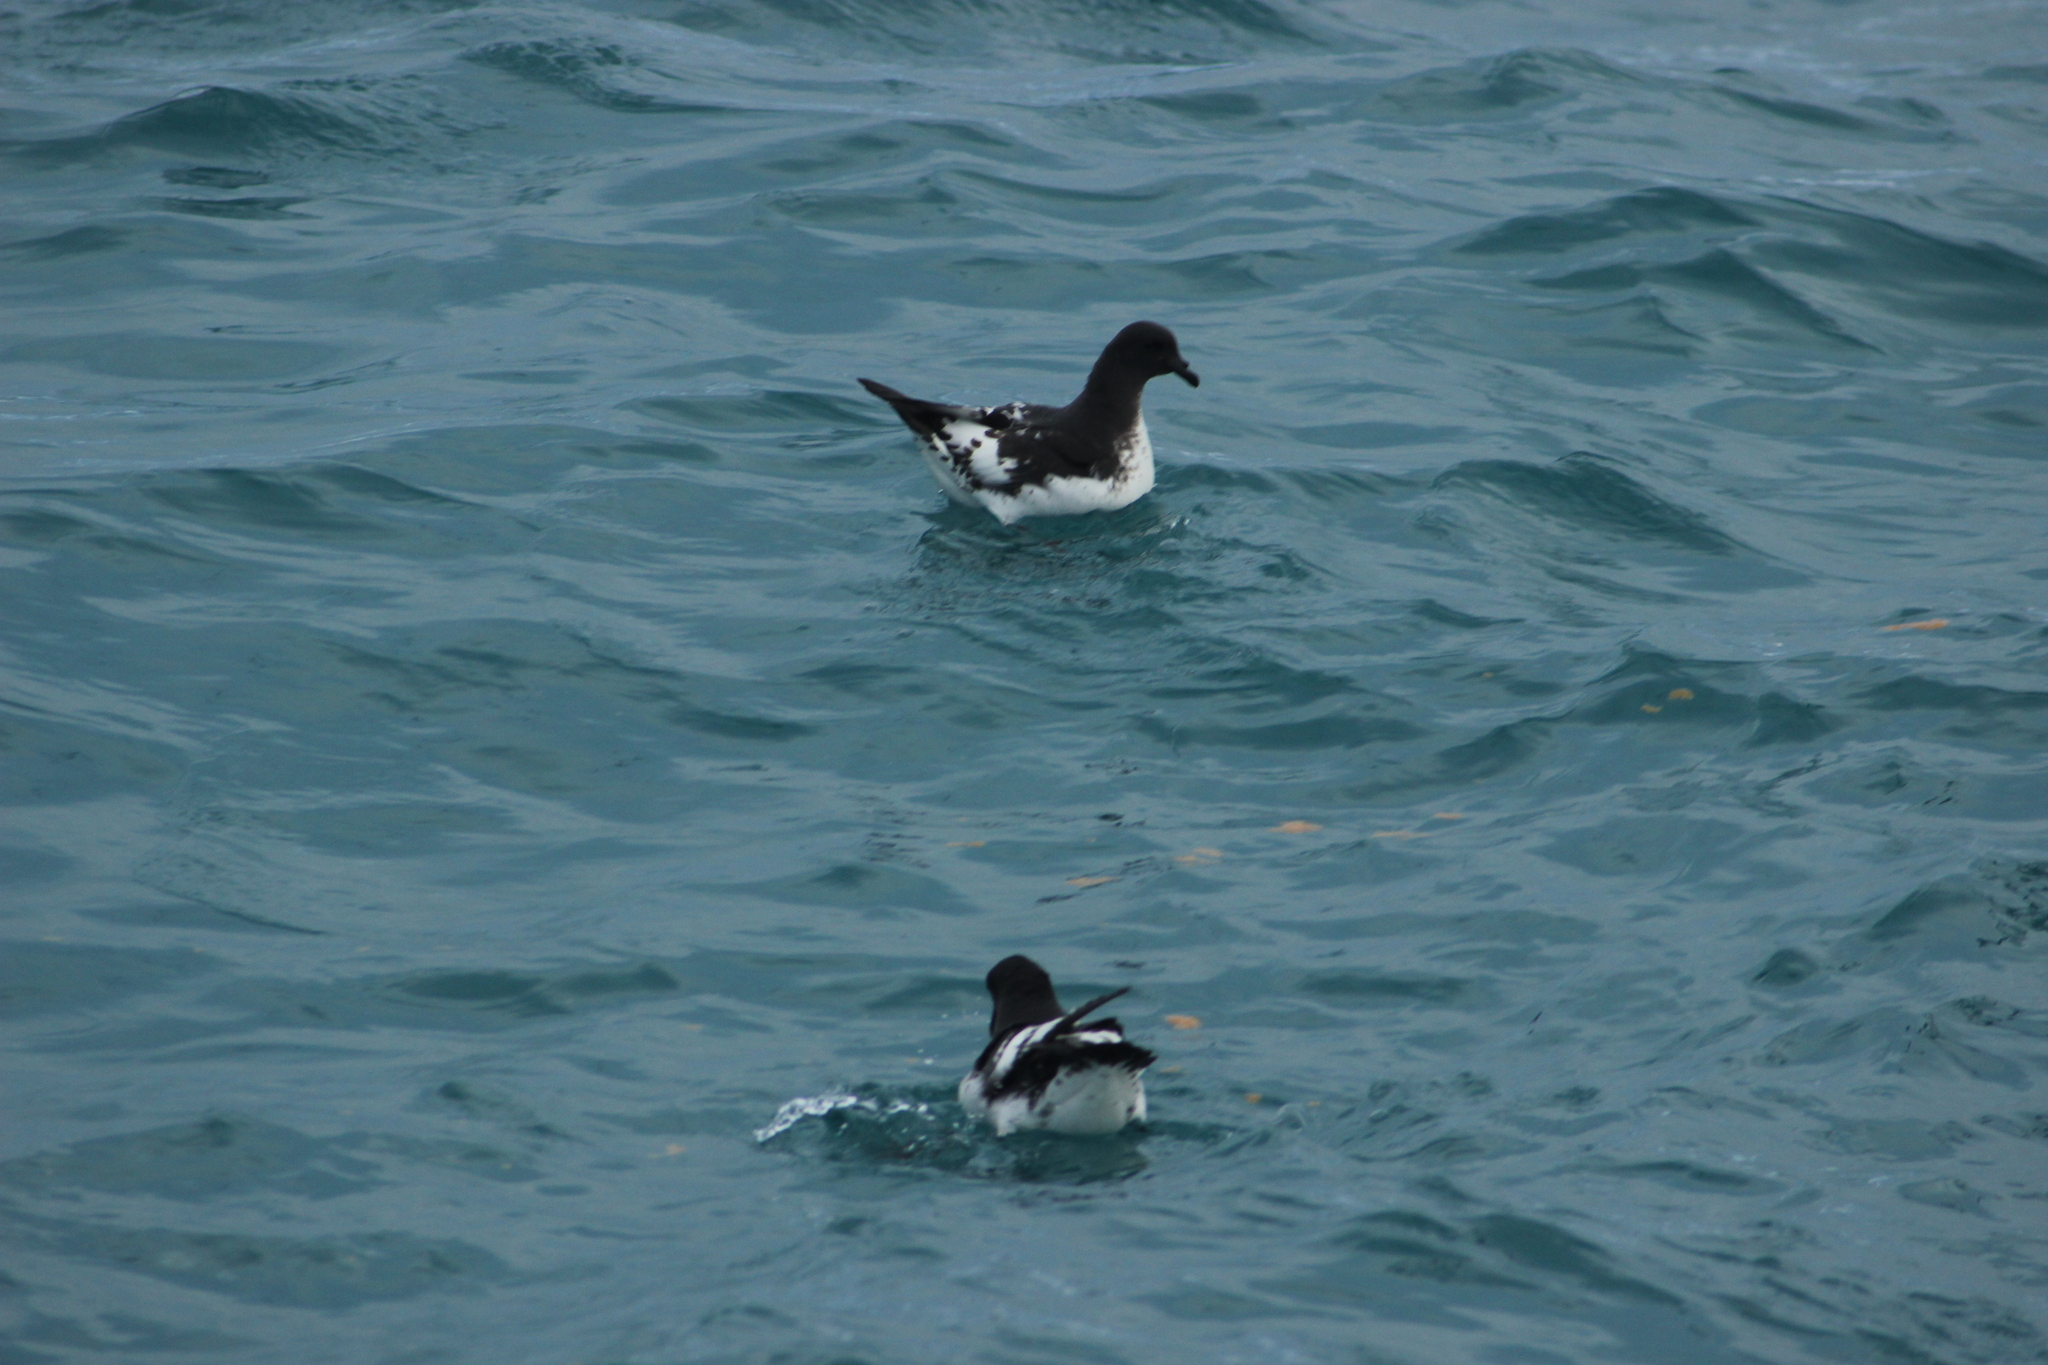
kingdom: Animalia
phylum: Chordata
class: Aves
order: Procellariiformes
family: Procellariidae
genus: Daption
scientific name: Daption capense
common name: Cape petrel
